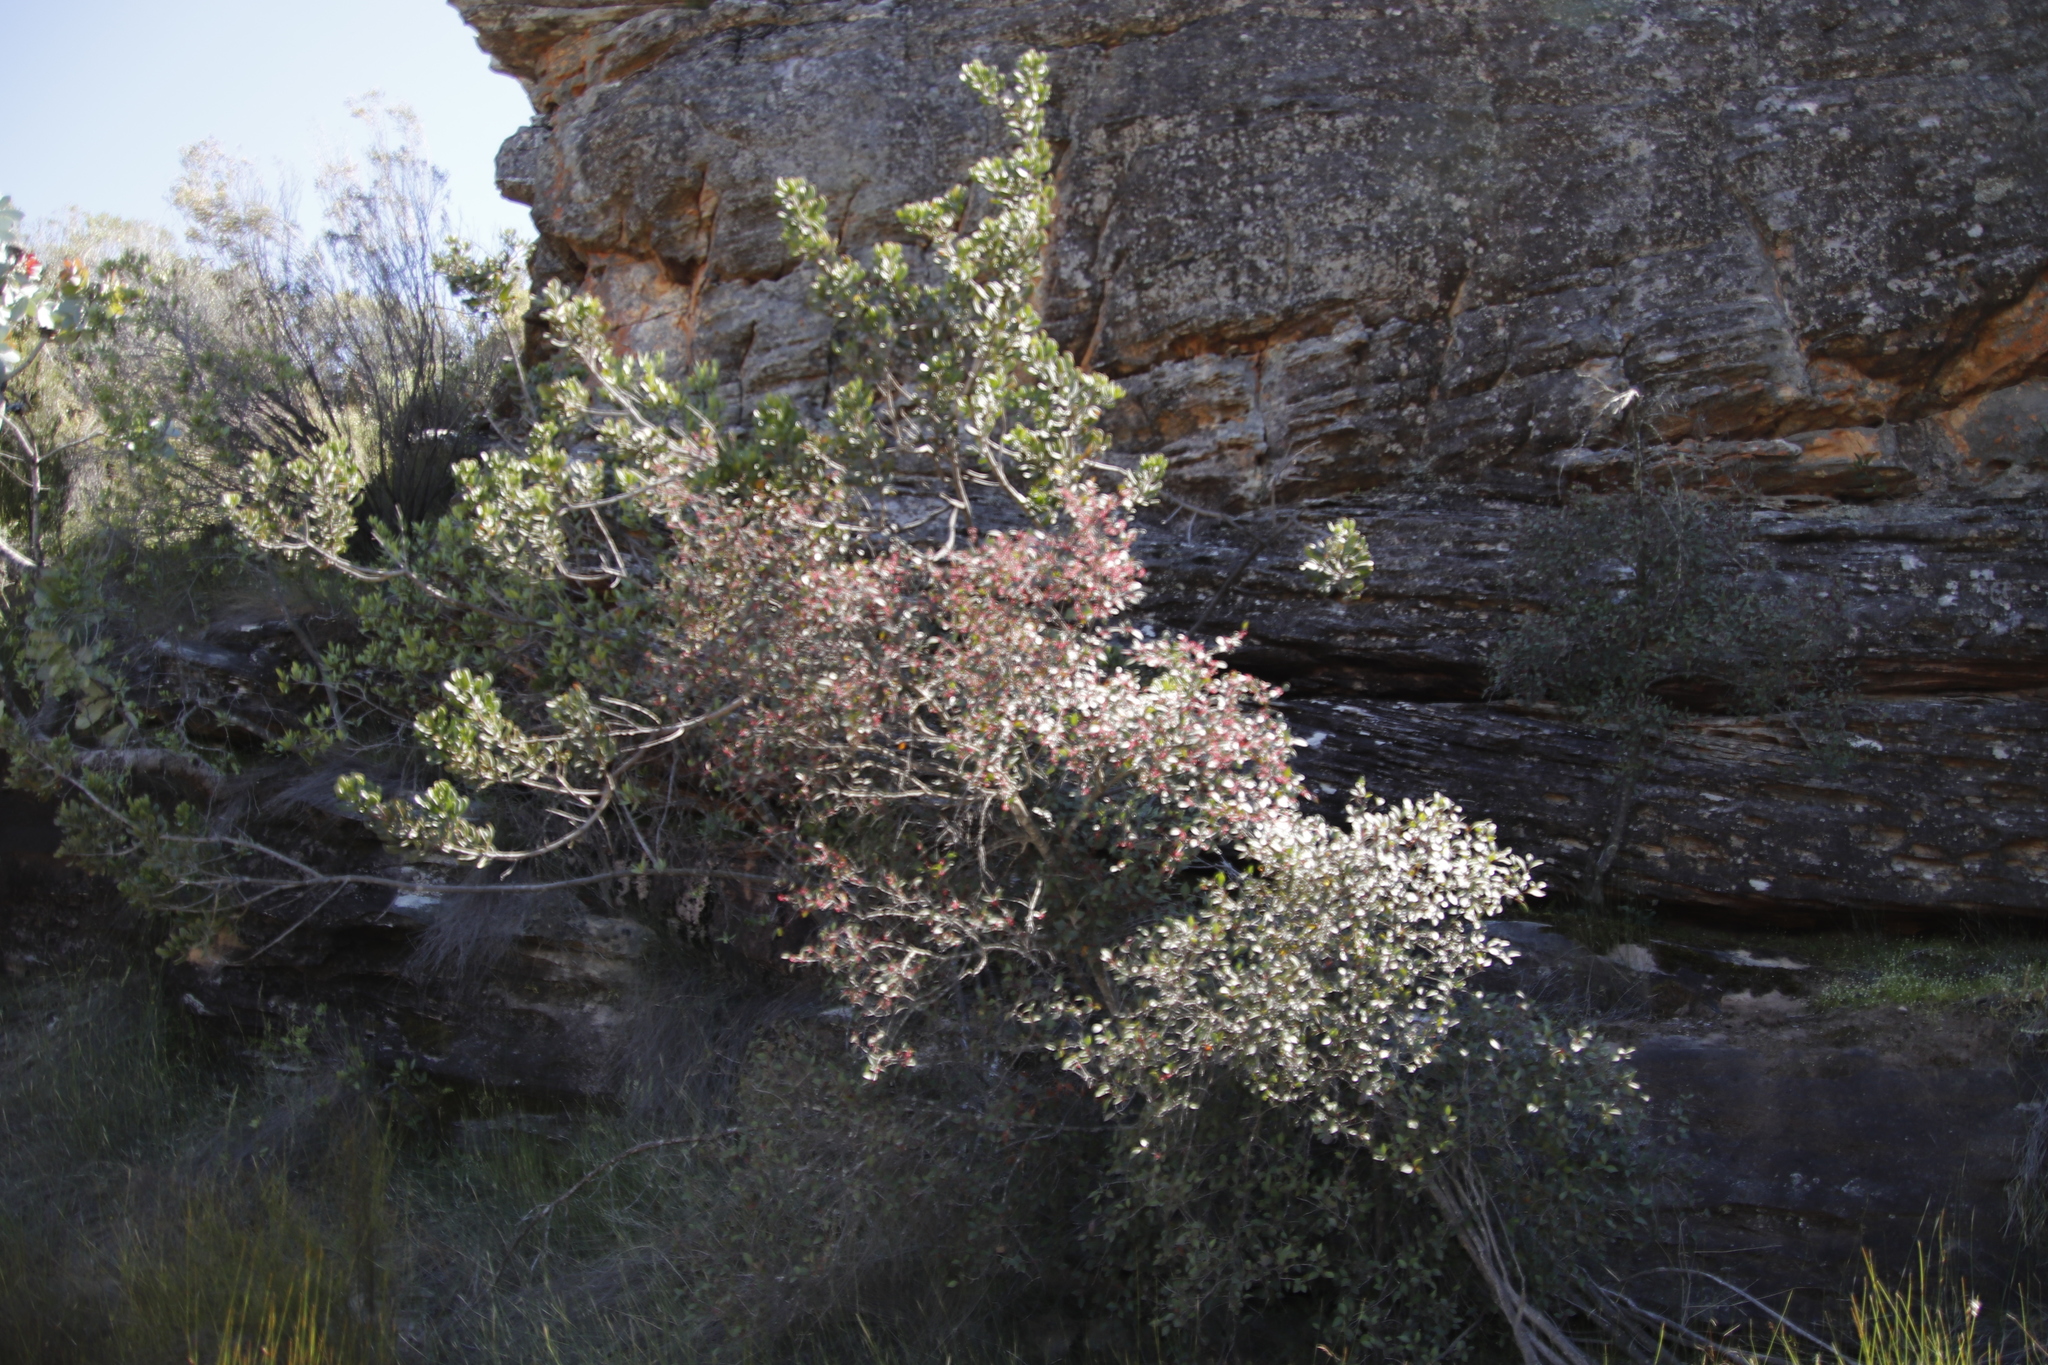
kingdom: Plantae
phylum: Tracheophyta
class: Magnoliopsida
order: Celastrales
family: Celastraceae
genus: Gymnosporia
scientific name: Gymnosporia acuminata
